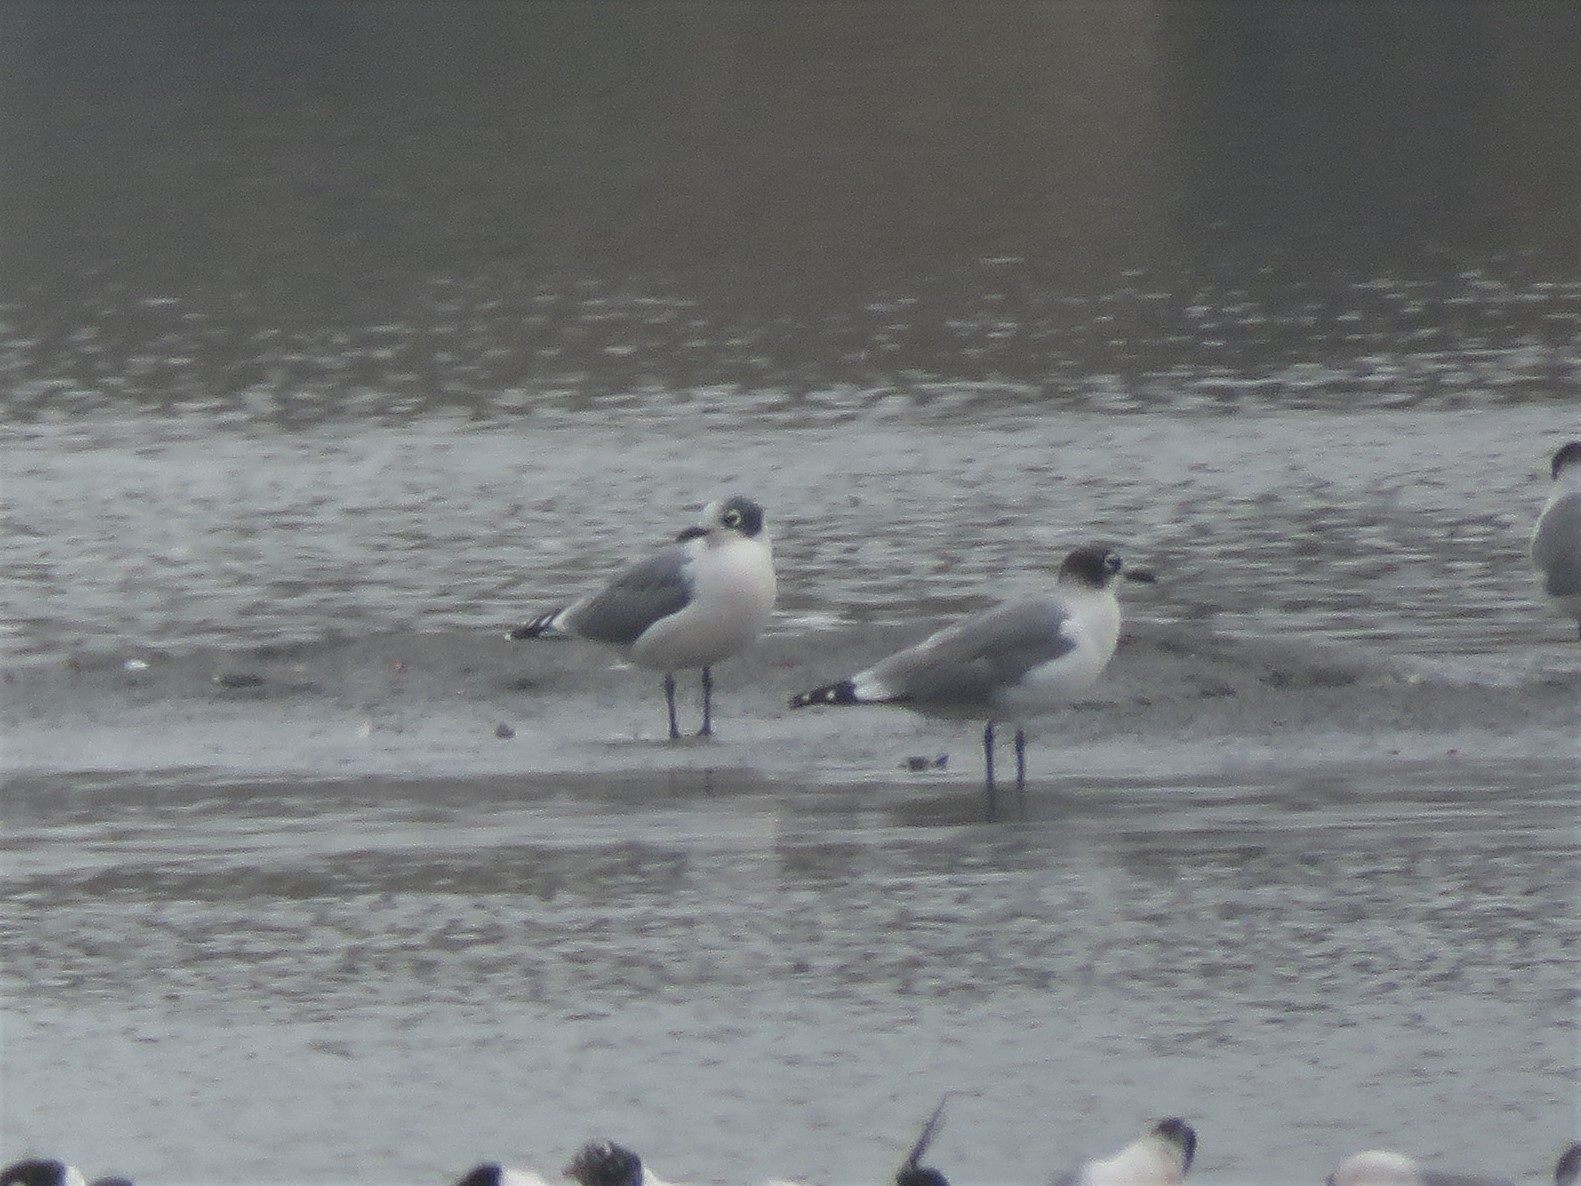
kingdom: Animalia
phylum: Chordata
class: Aves
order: Charadriiformes
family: Laridae
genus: Leucophaeus
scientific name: Leucophaeus pipixcan
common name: Franklin's gull
